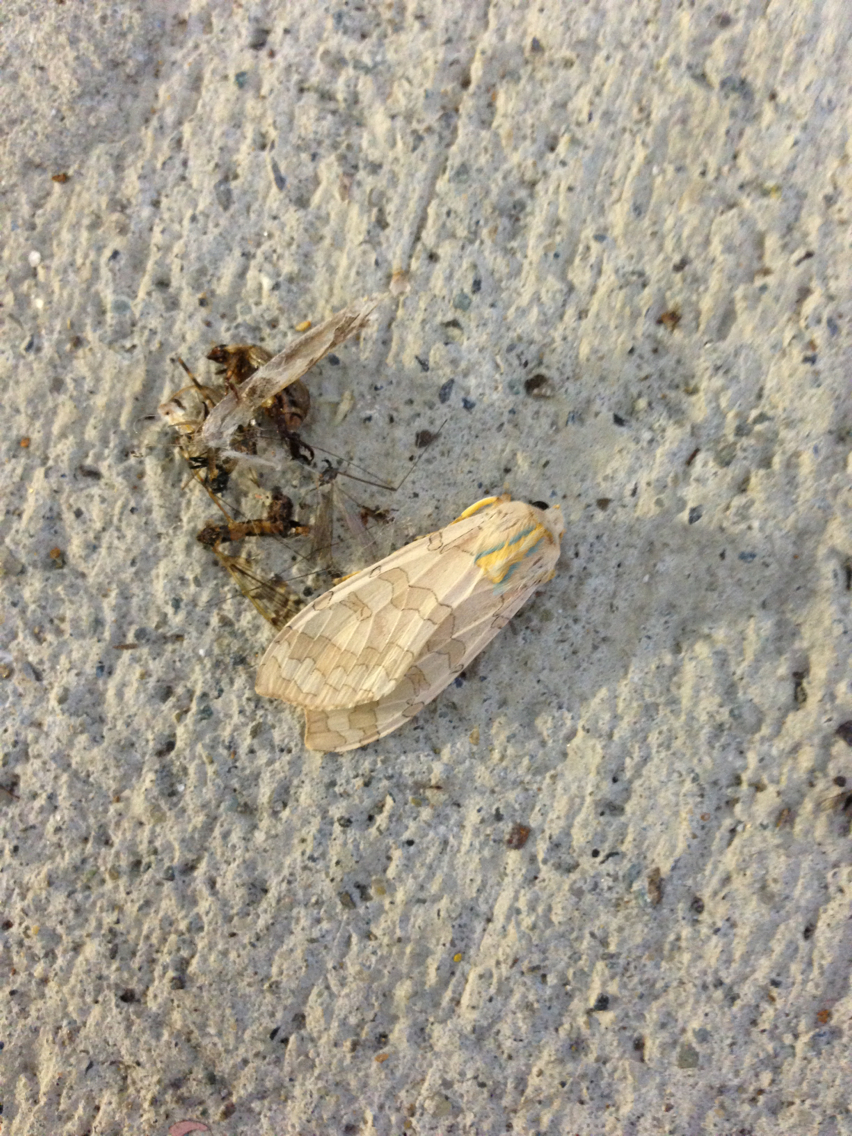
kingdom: Animalia
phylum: Arthropoda
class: Insecta
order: Lepidoptera
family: Erebidae
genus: Halysidota
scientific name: Halysidota tessellaris
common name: Banded tussock moth
